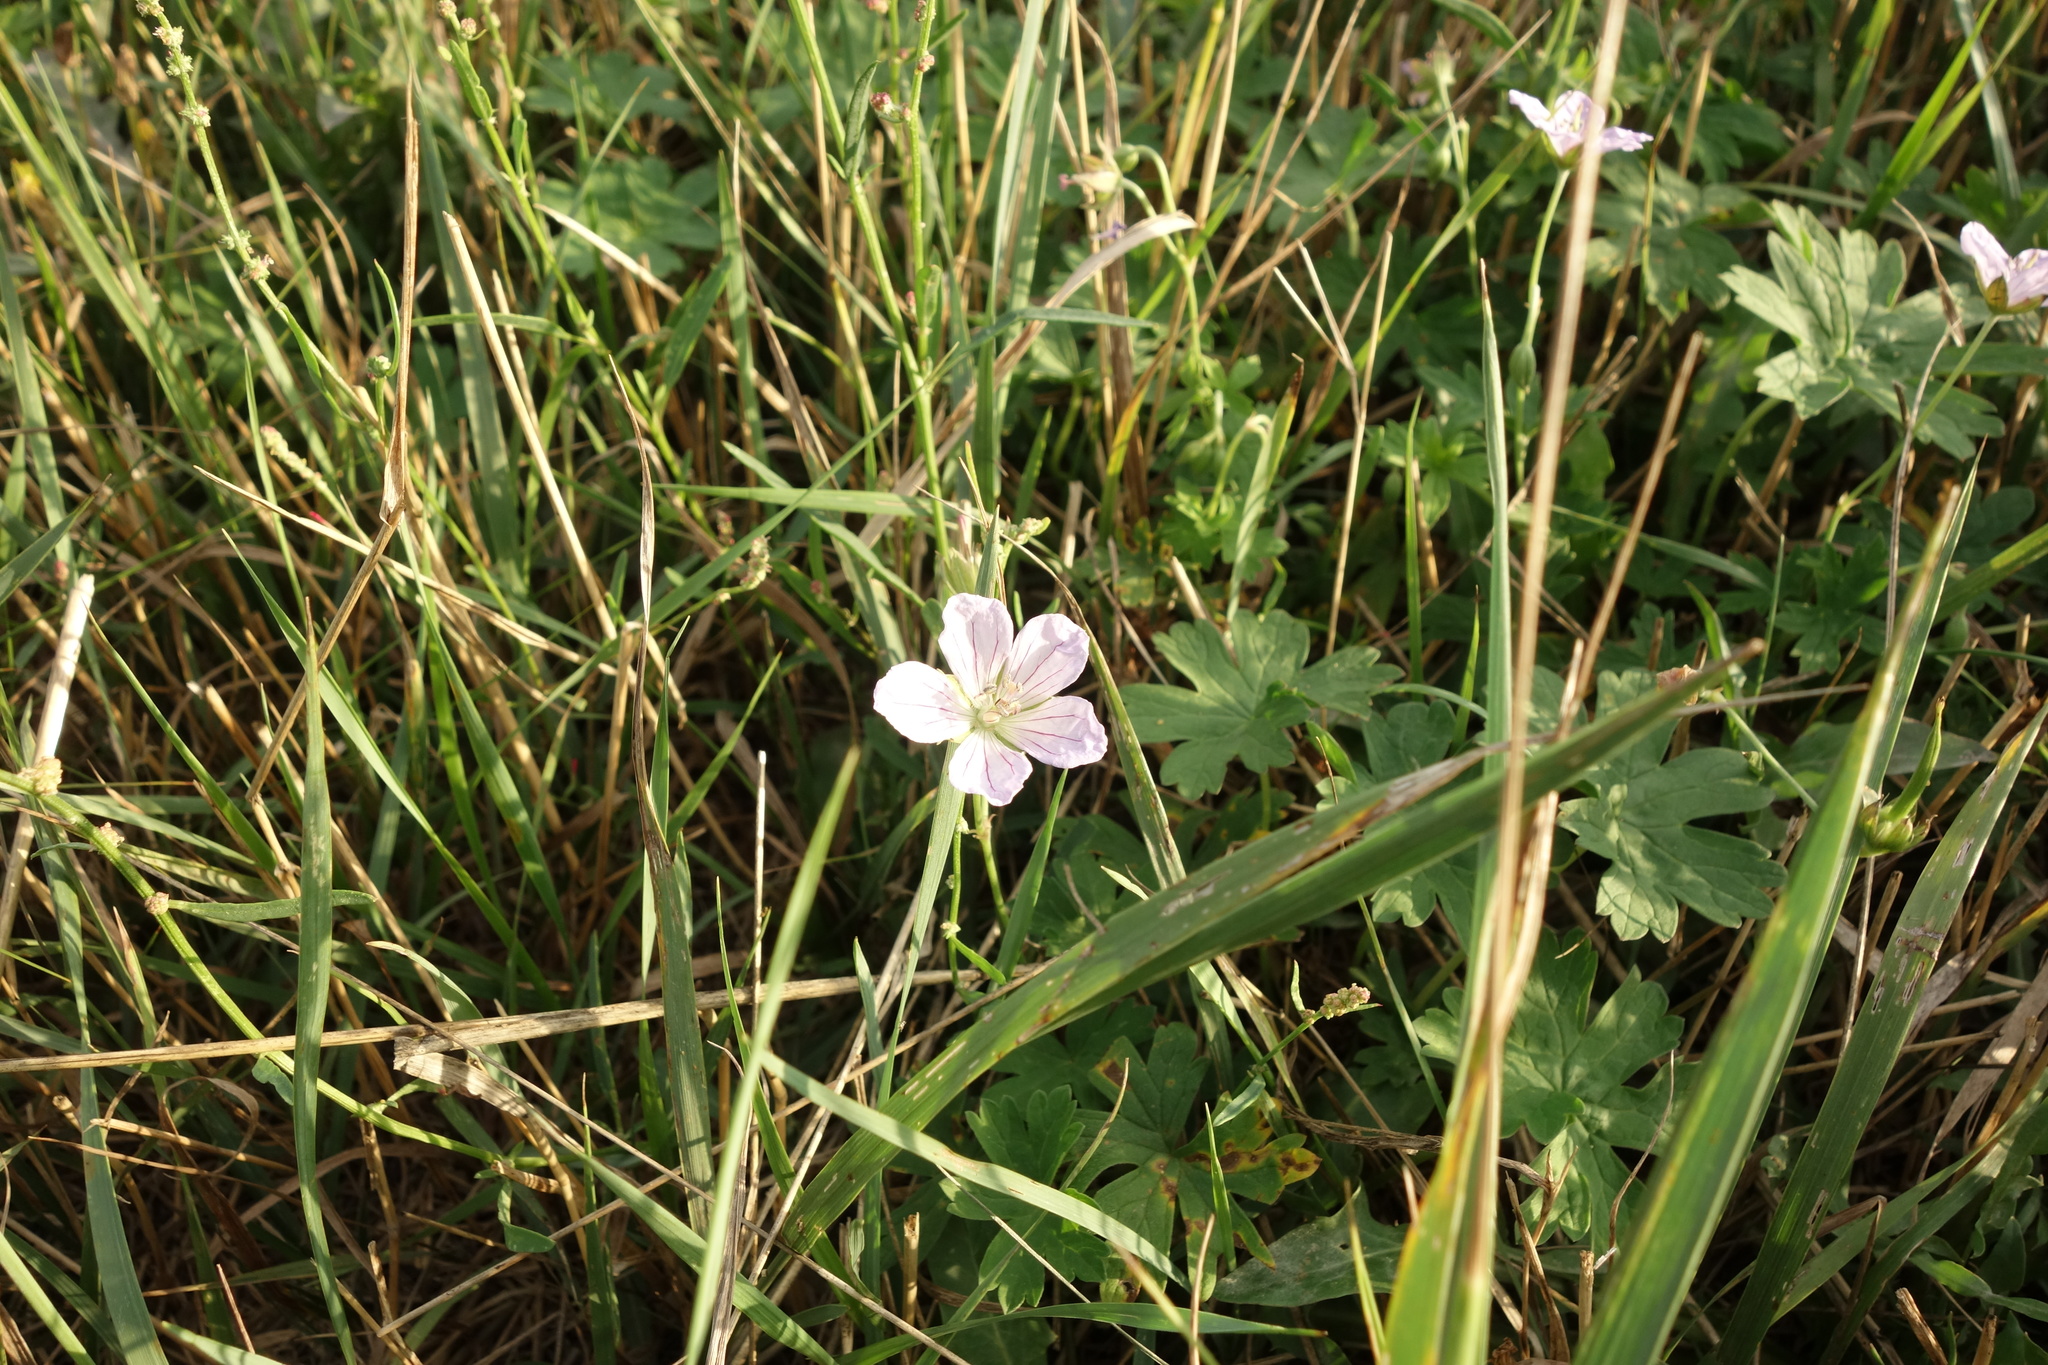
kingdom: Plantae
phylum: Tracheophyta
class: Magnoliopsida
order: Geraniales
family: Geraniaceae
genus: Geranium
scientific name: Geranium collinum
